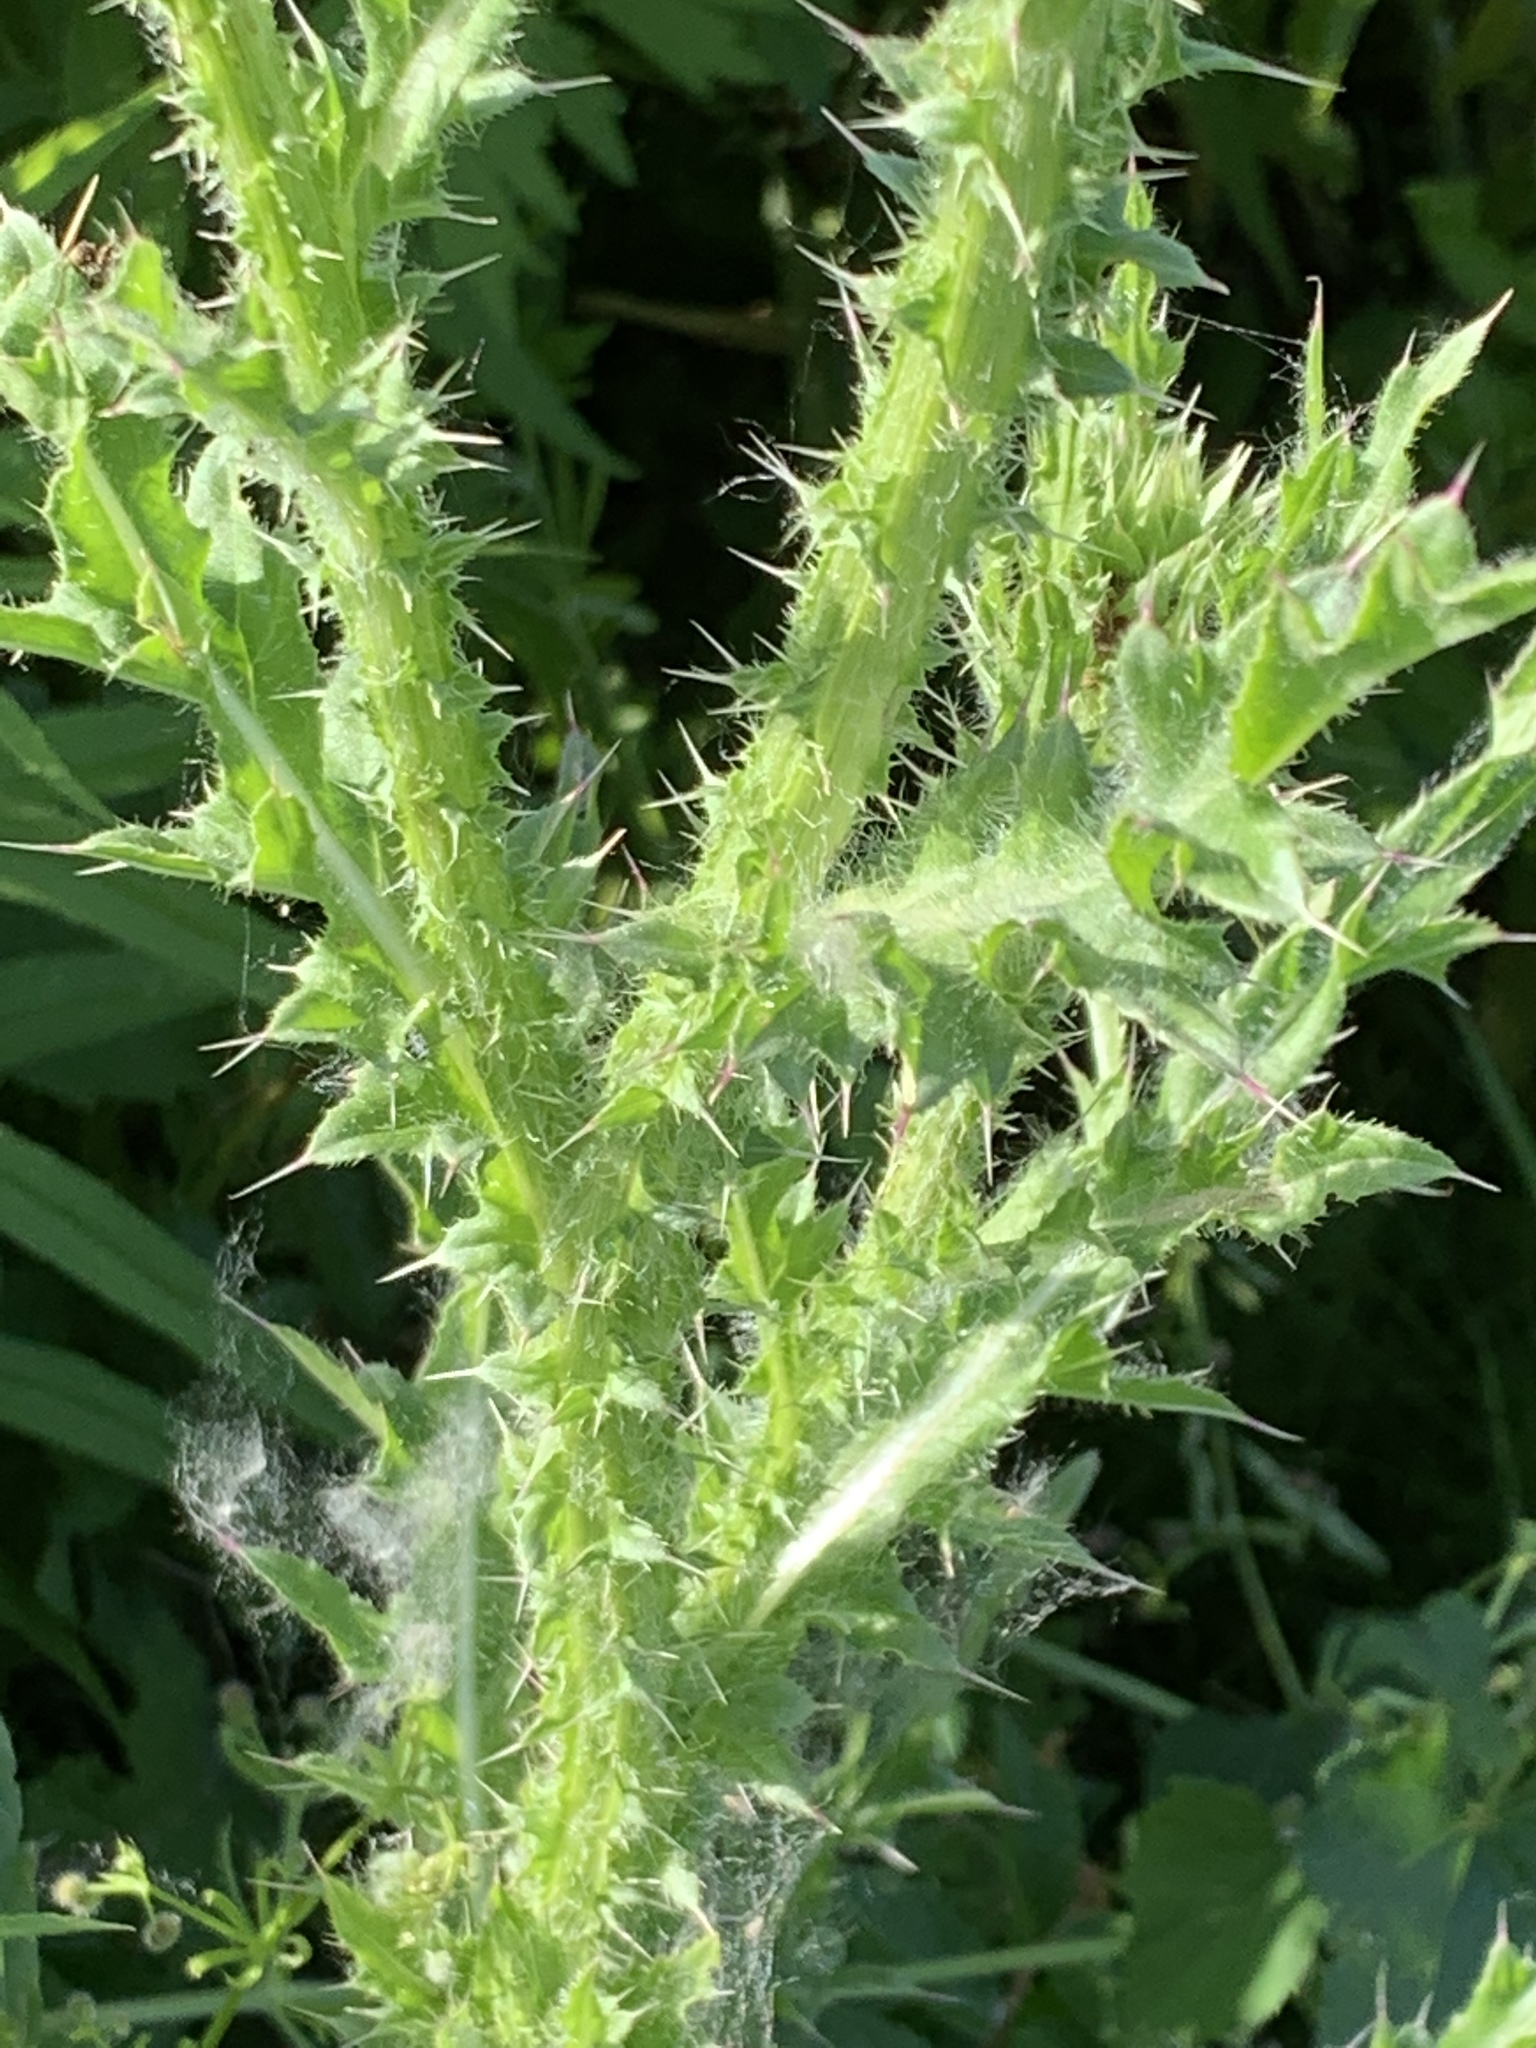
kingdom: Plantae
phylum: Tracheophyta
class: Magnoliopsida
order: Asterales
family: Asteraceae
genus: Carduus
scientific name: Carduus nutans
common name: Musk thistle
